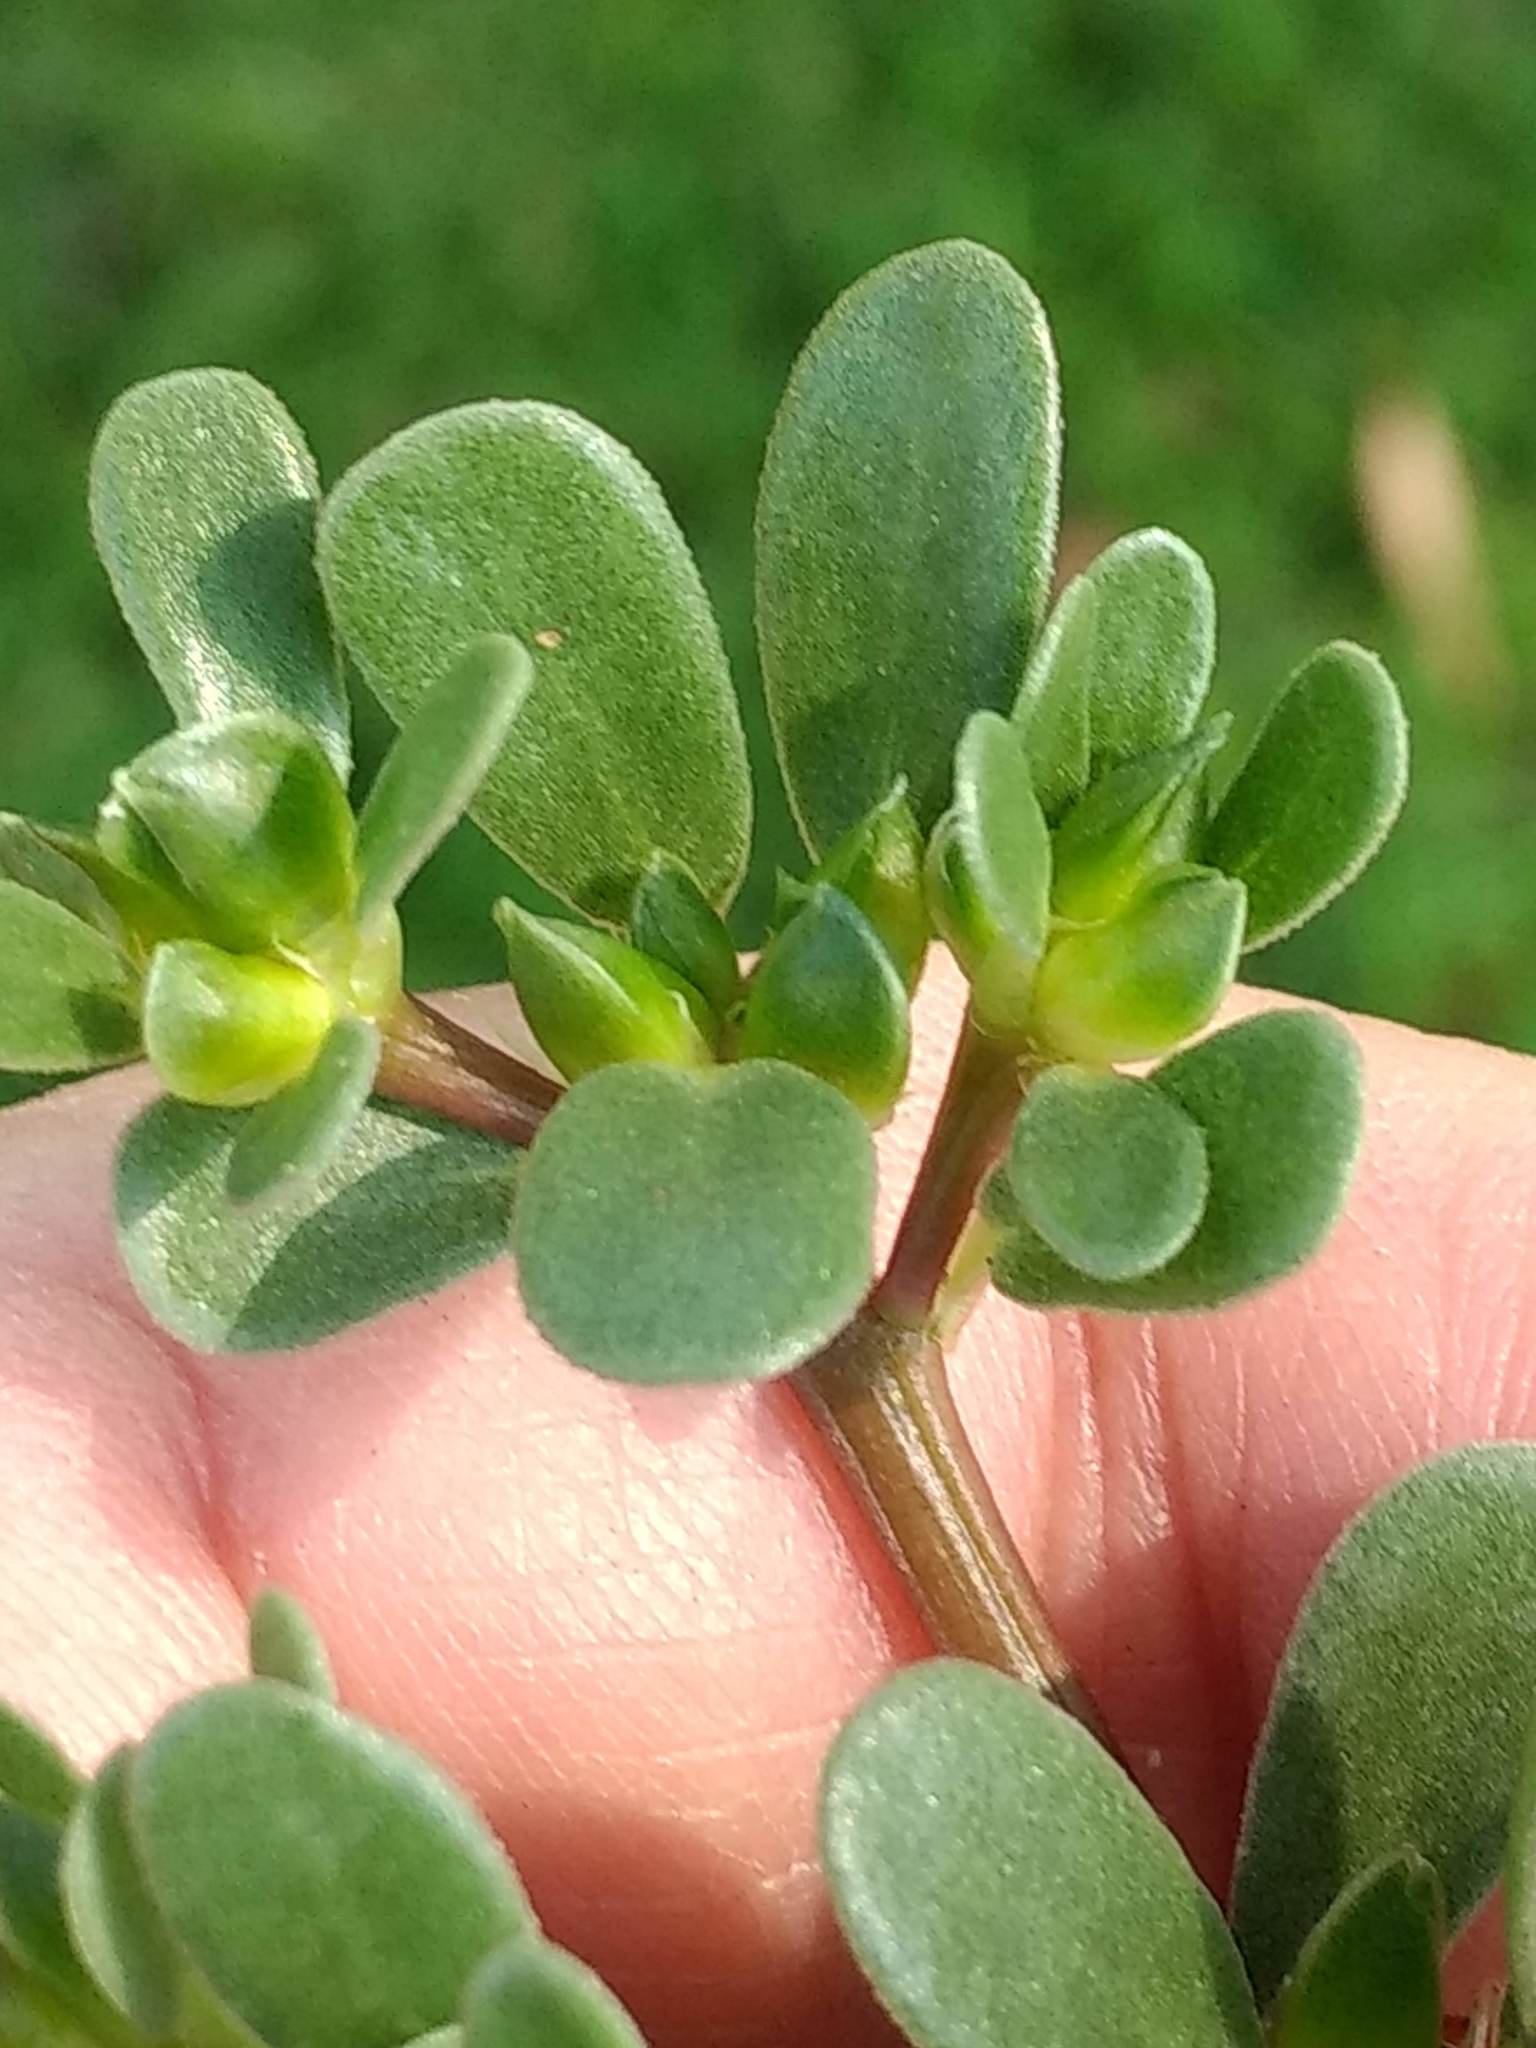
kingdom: Plantae
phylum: Tracheophyta
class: Magnoliopsida
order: Caryophyllales
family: Portulacaceae
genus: Portulaca
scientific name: Portulaca oleracea
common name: Common purslane
